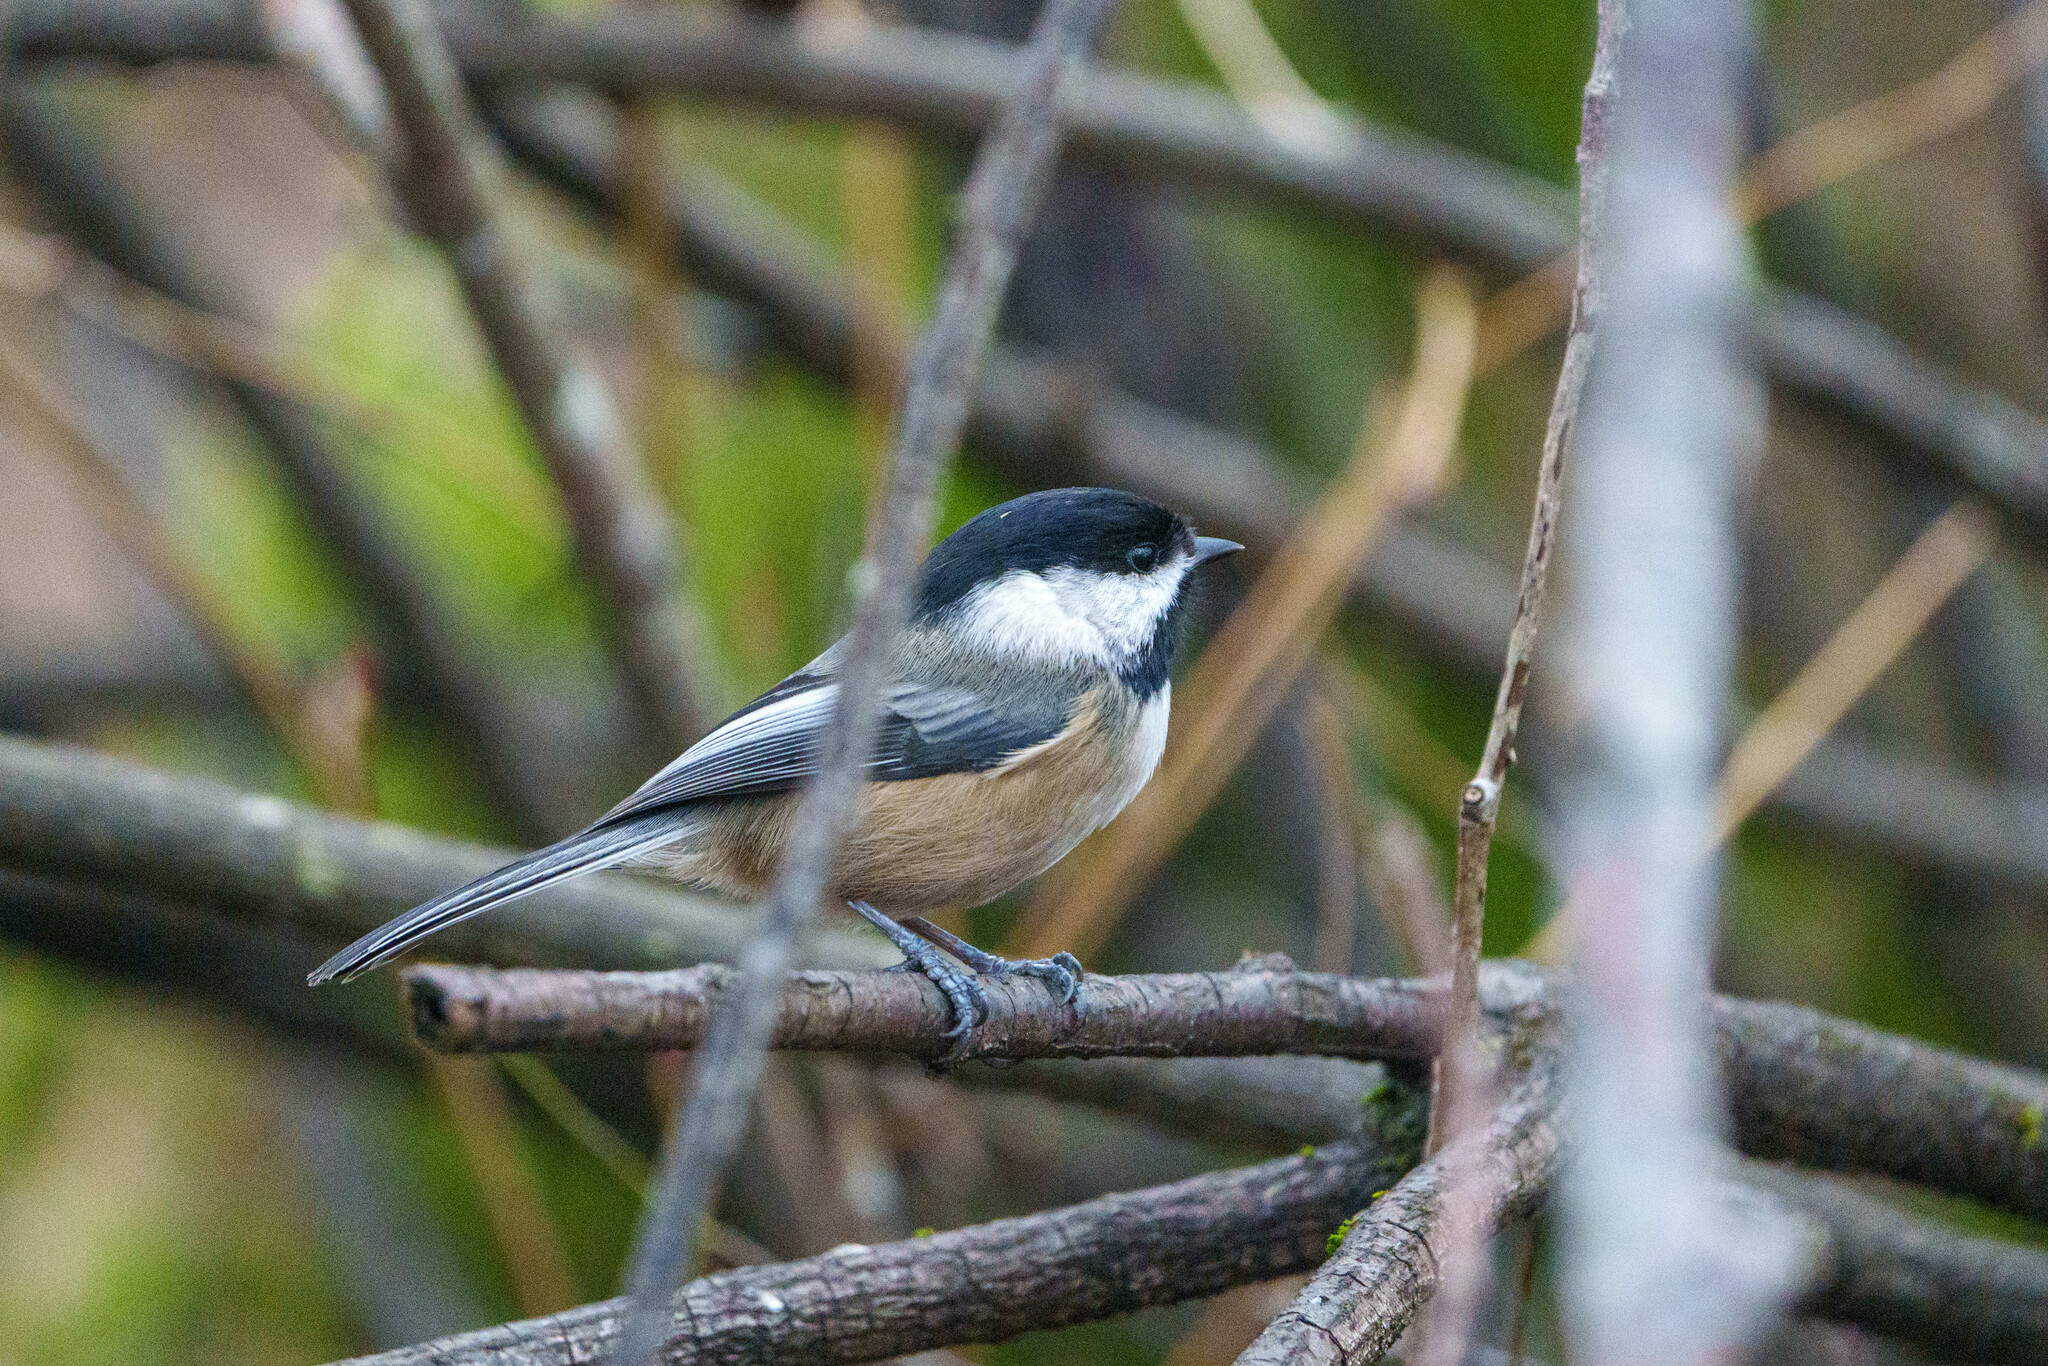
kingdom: Animalia
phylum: Chordata
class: Aves
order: Passeriformes
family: Paridae
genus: Poecile
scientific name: Poecile atricapillus
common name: Black-capped chickadee
